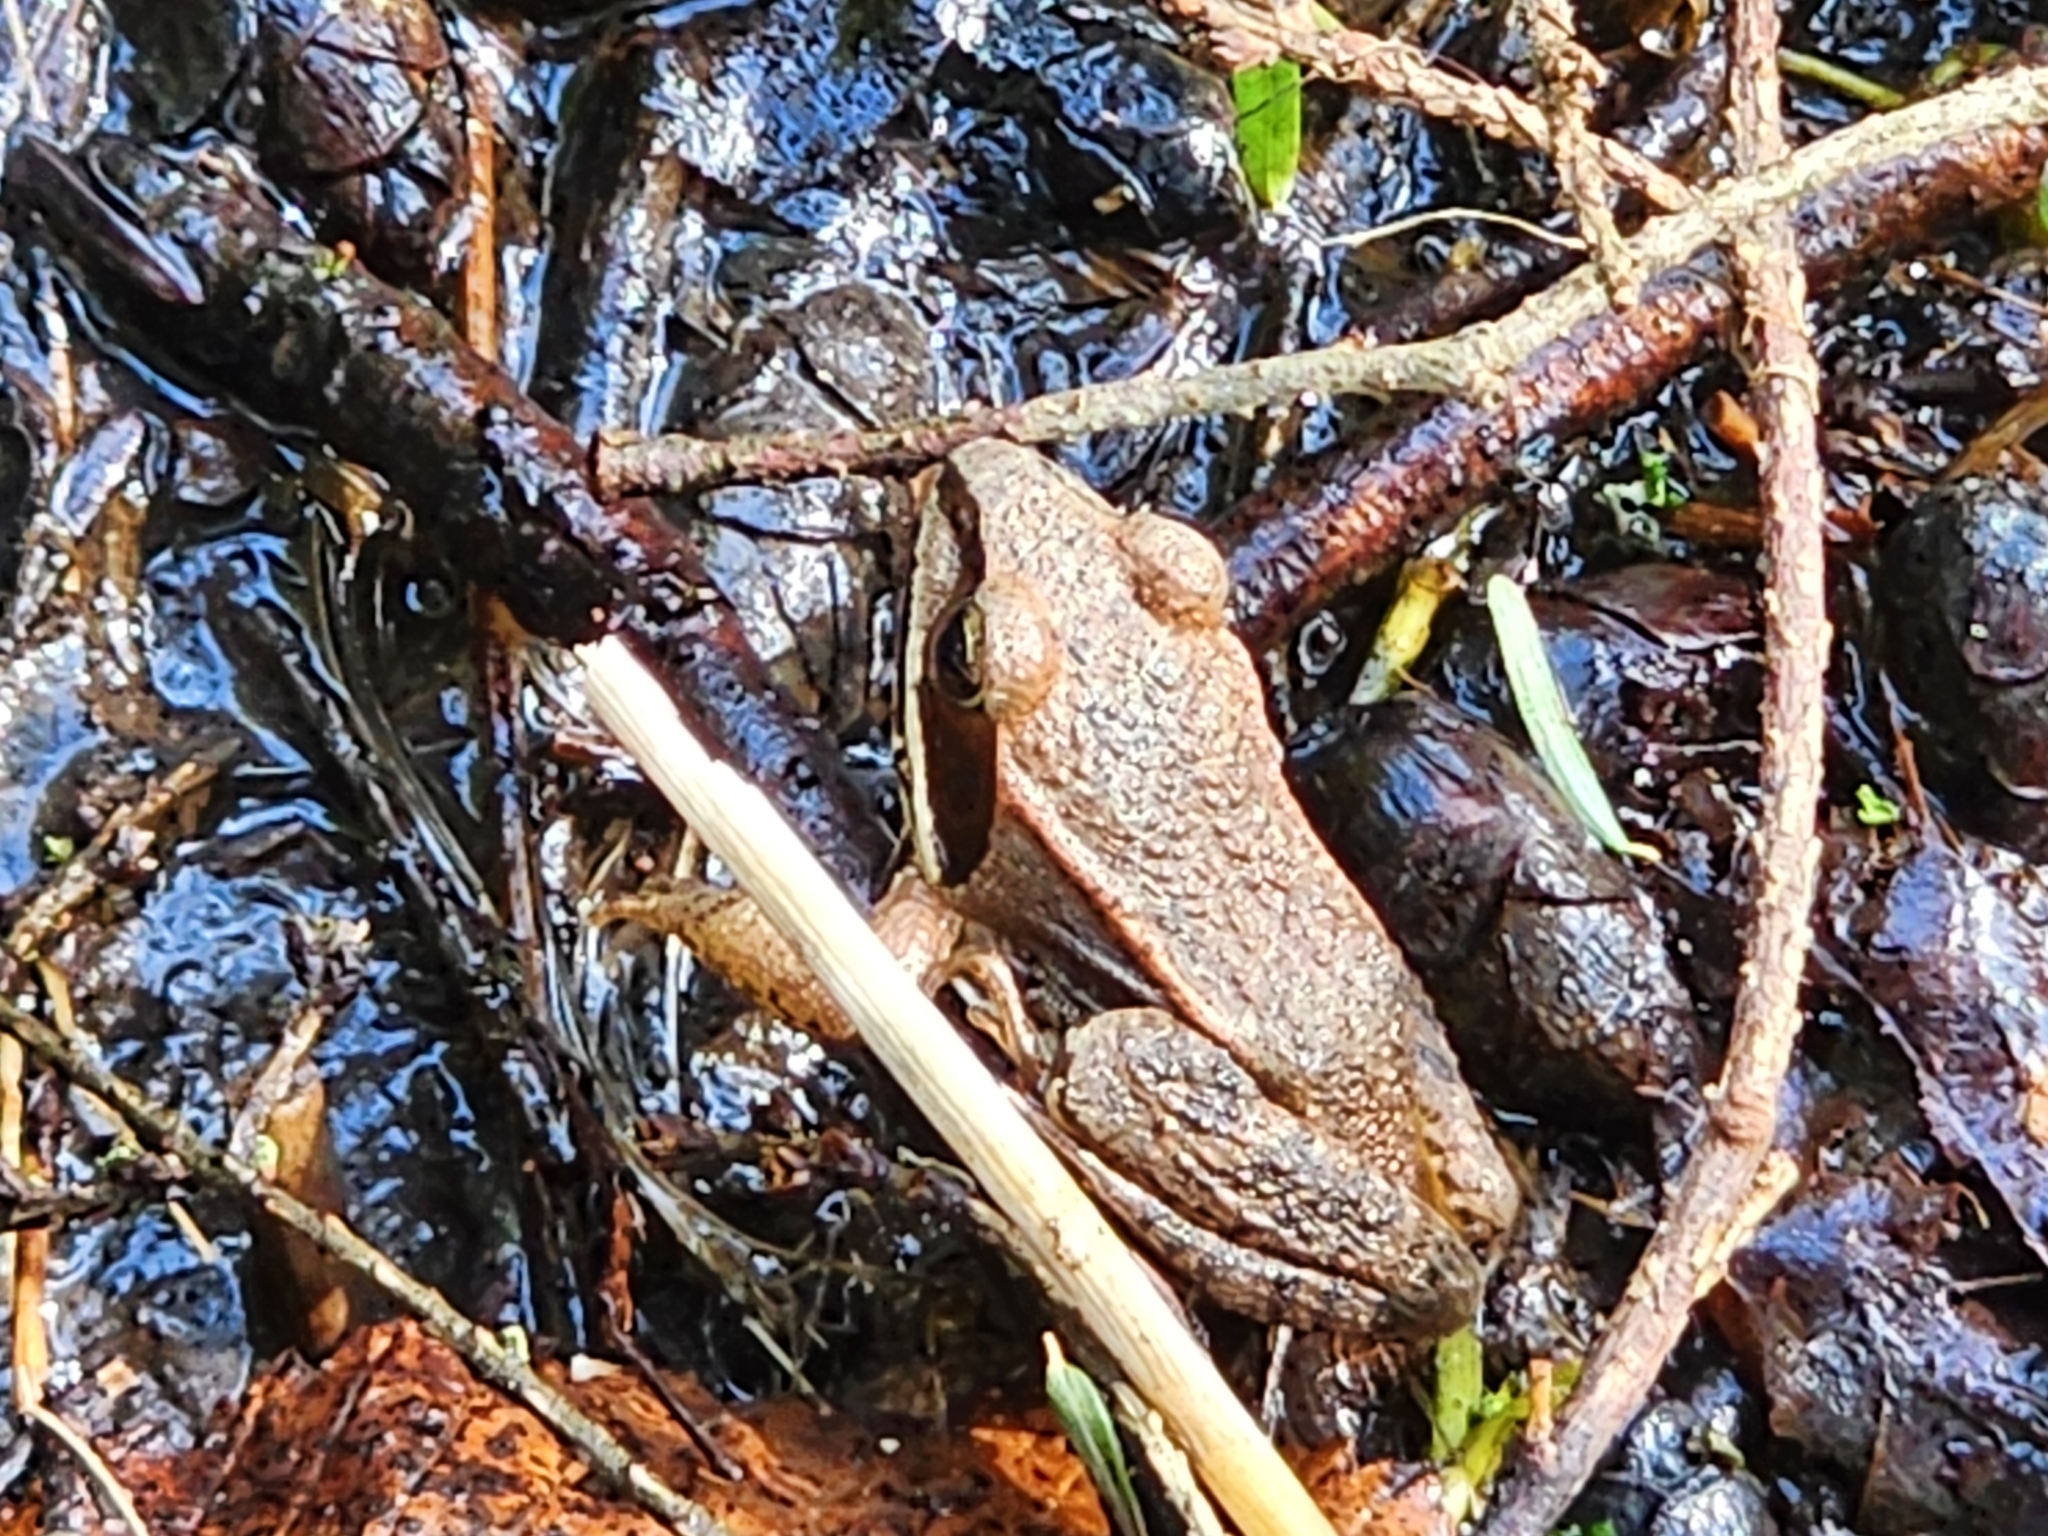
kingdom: Animalia
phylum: Chordata
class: Amphibia
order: Anura
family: Ranidae
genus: Lithobates
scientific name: Lithobates sylvaticus
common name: Wood frog
